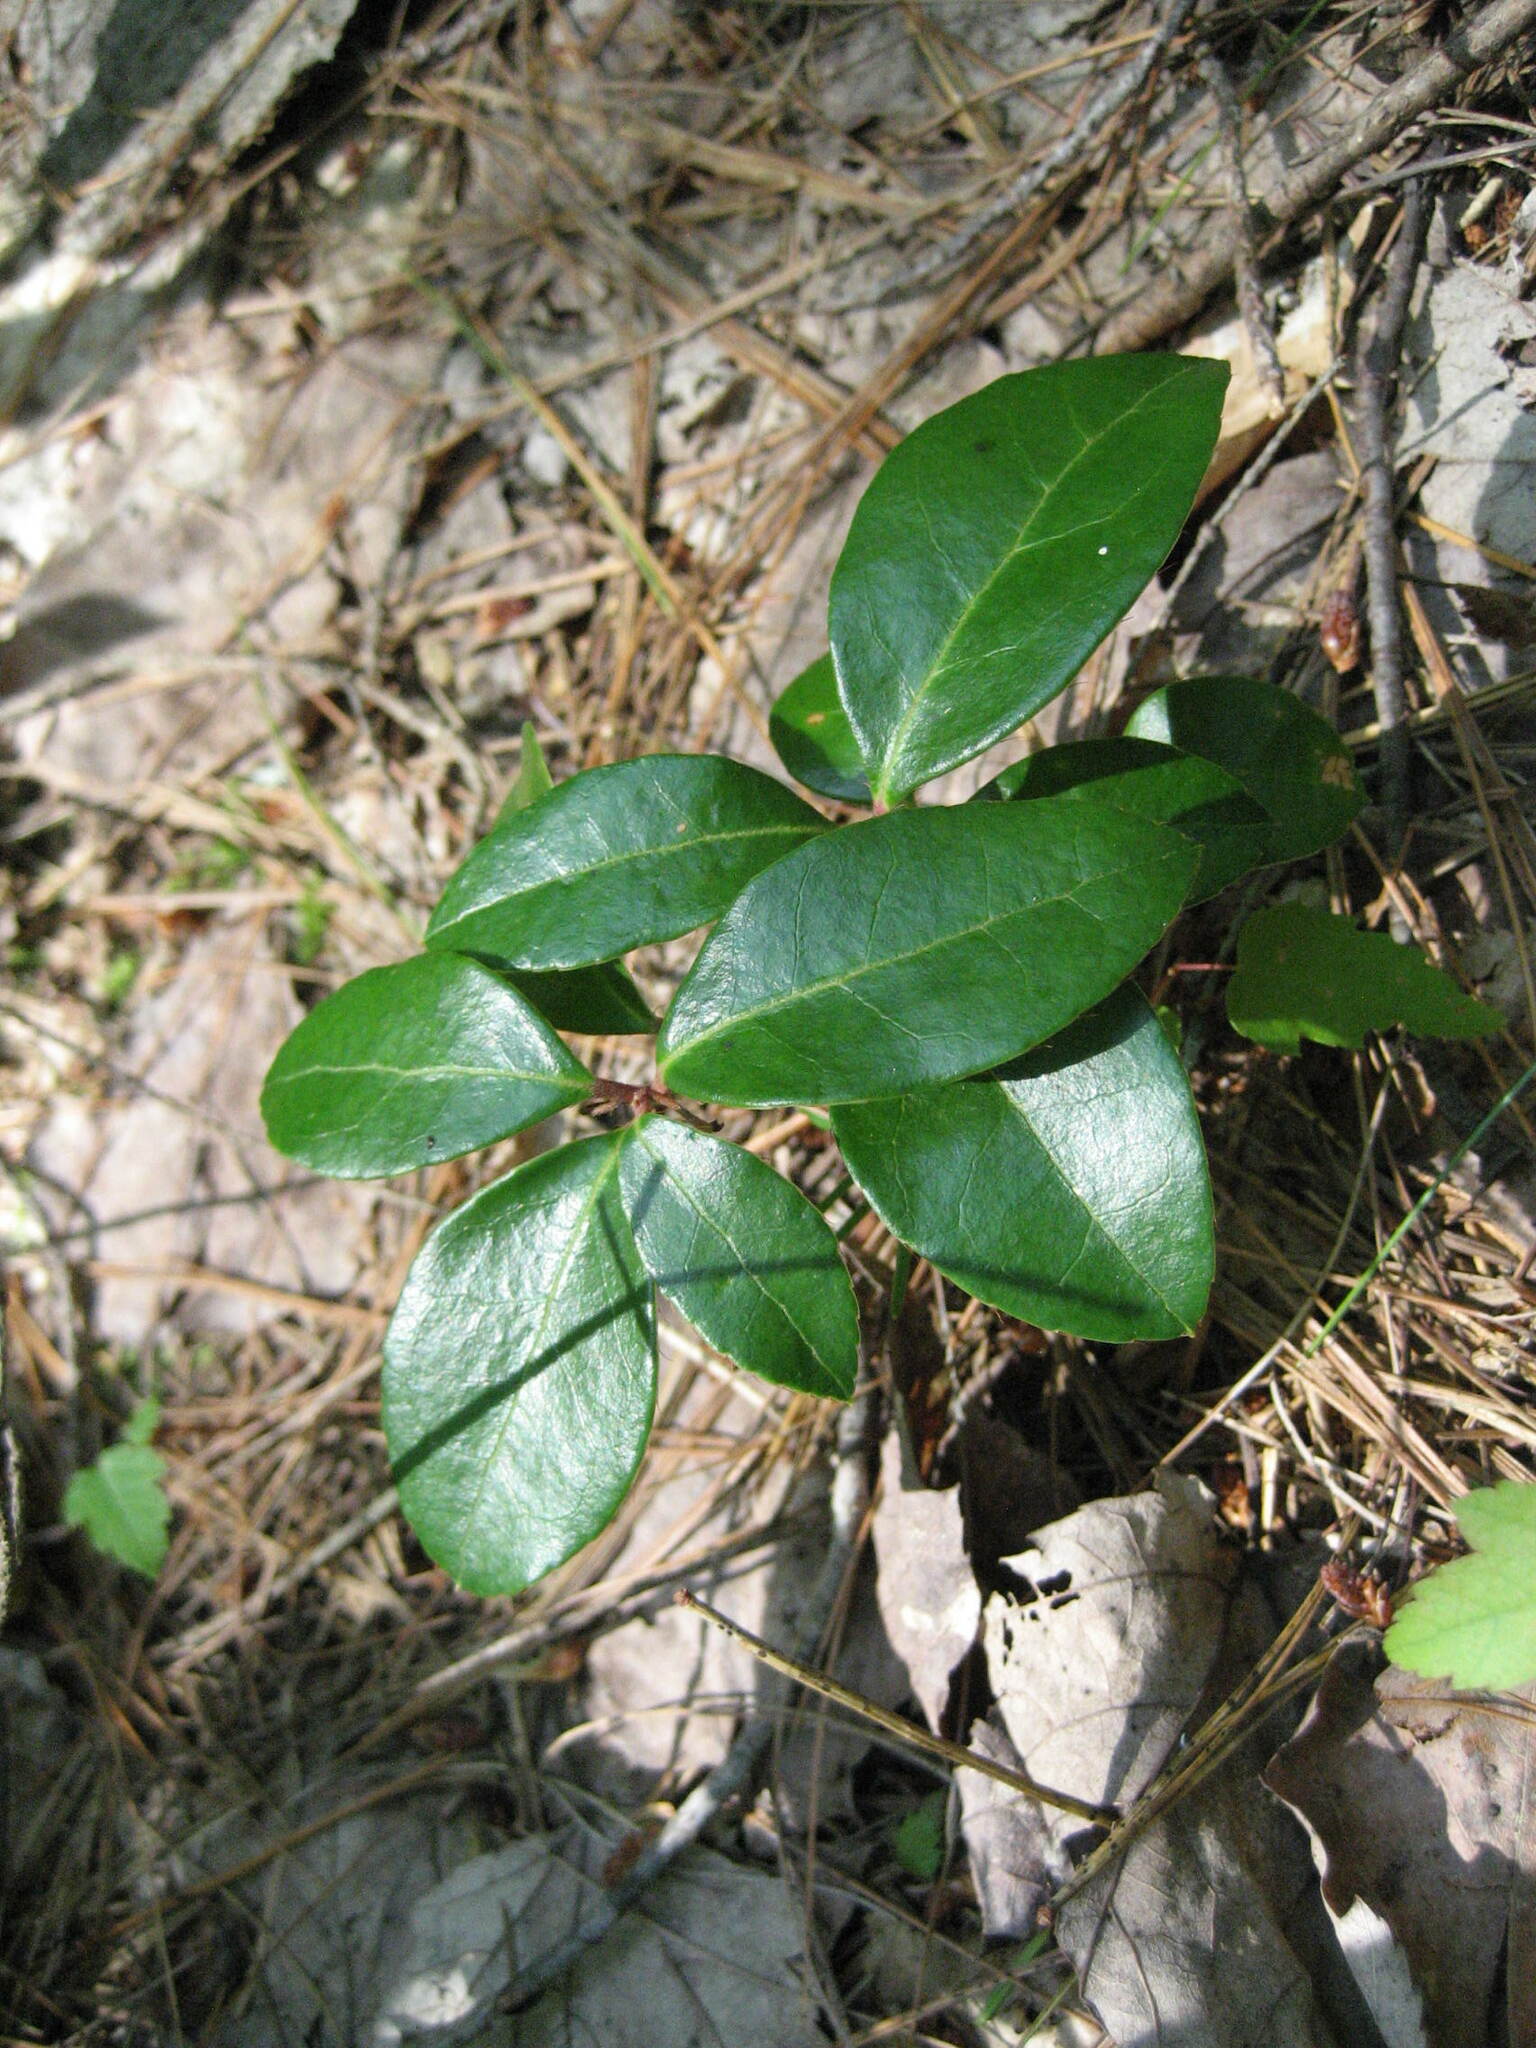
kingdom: Plantae
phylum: Tracheophyta
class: Magnoliopsida
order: Ericales
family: Ericaceae
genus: Gaultheria
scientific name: Gaultheria procumbens
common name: Checkerberry
